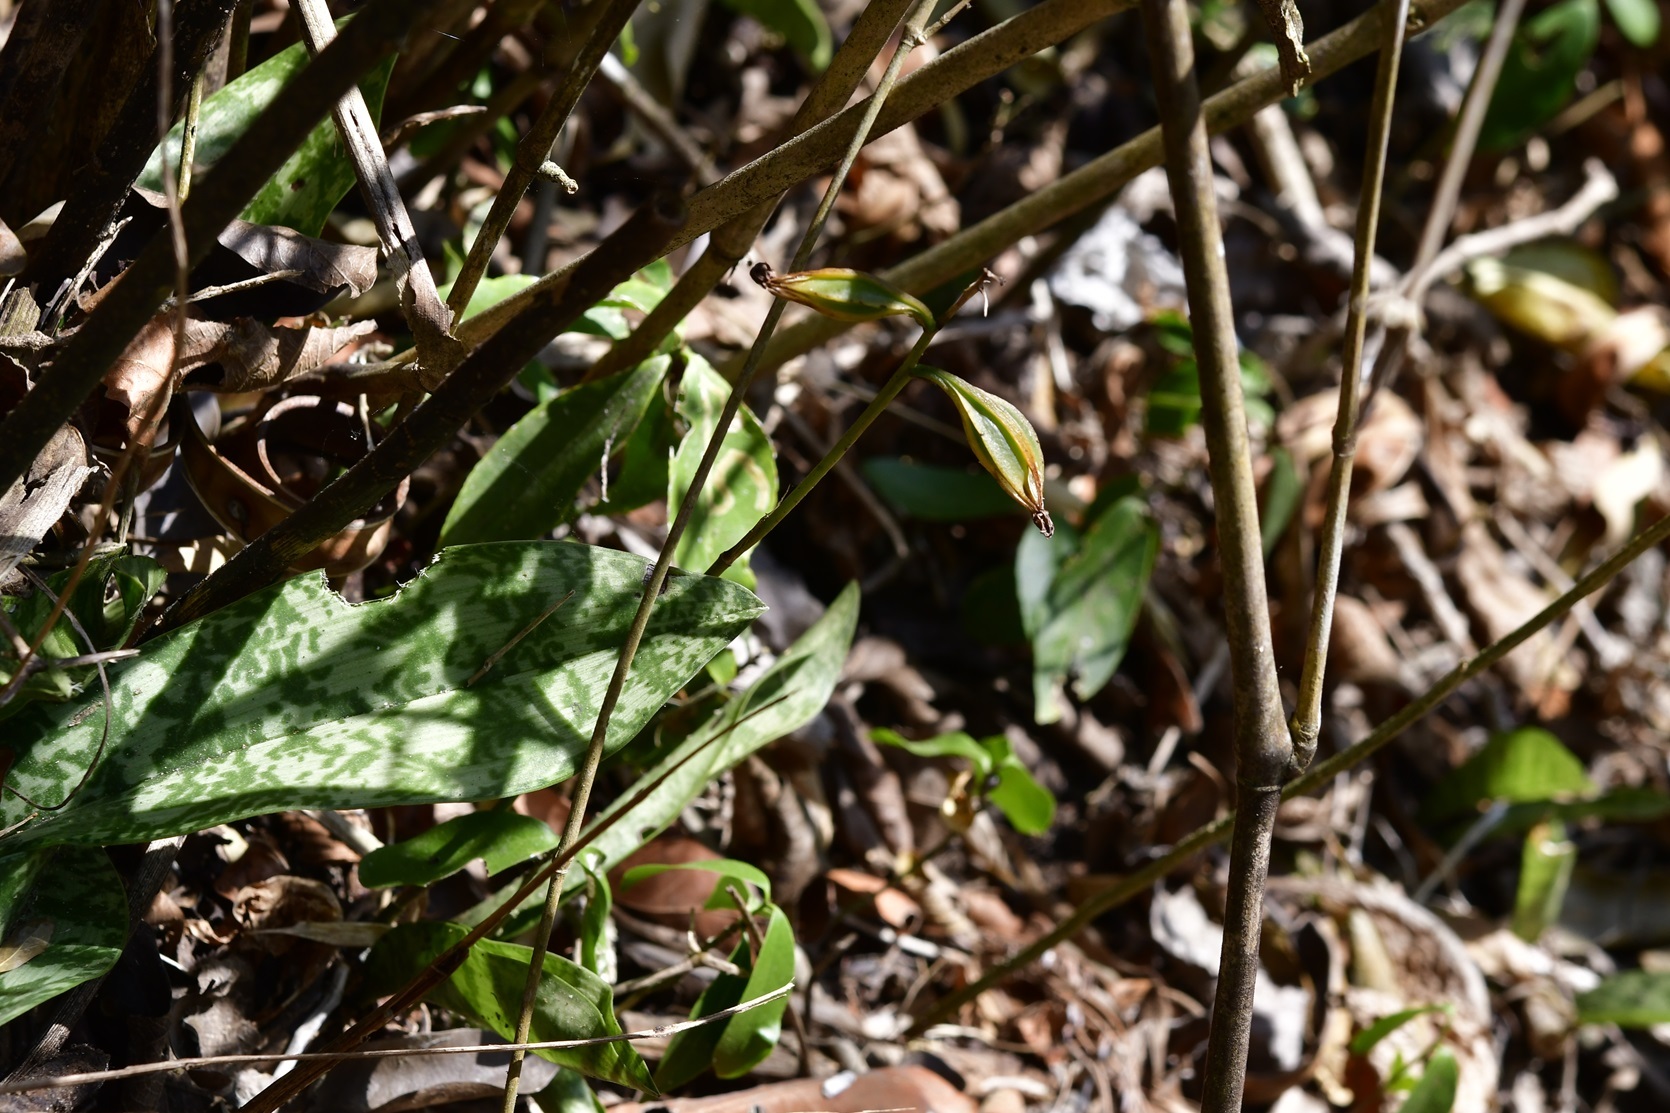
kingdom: Plantae
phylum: Tracheophyta
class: Liliopsida
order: Asparagales
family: Orchidaceae
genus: Eulophia
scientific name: Eulophia maculata
